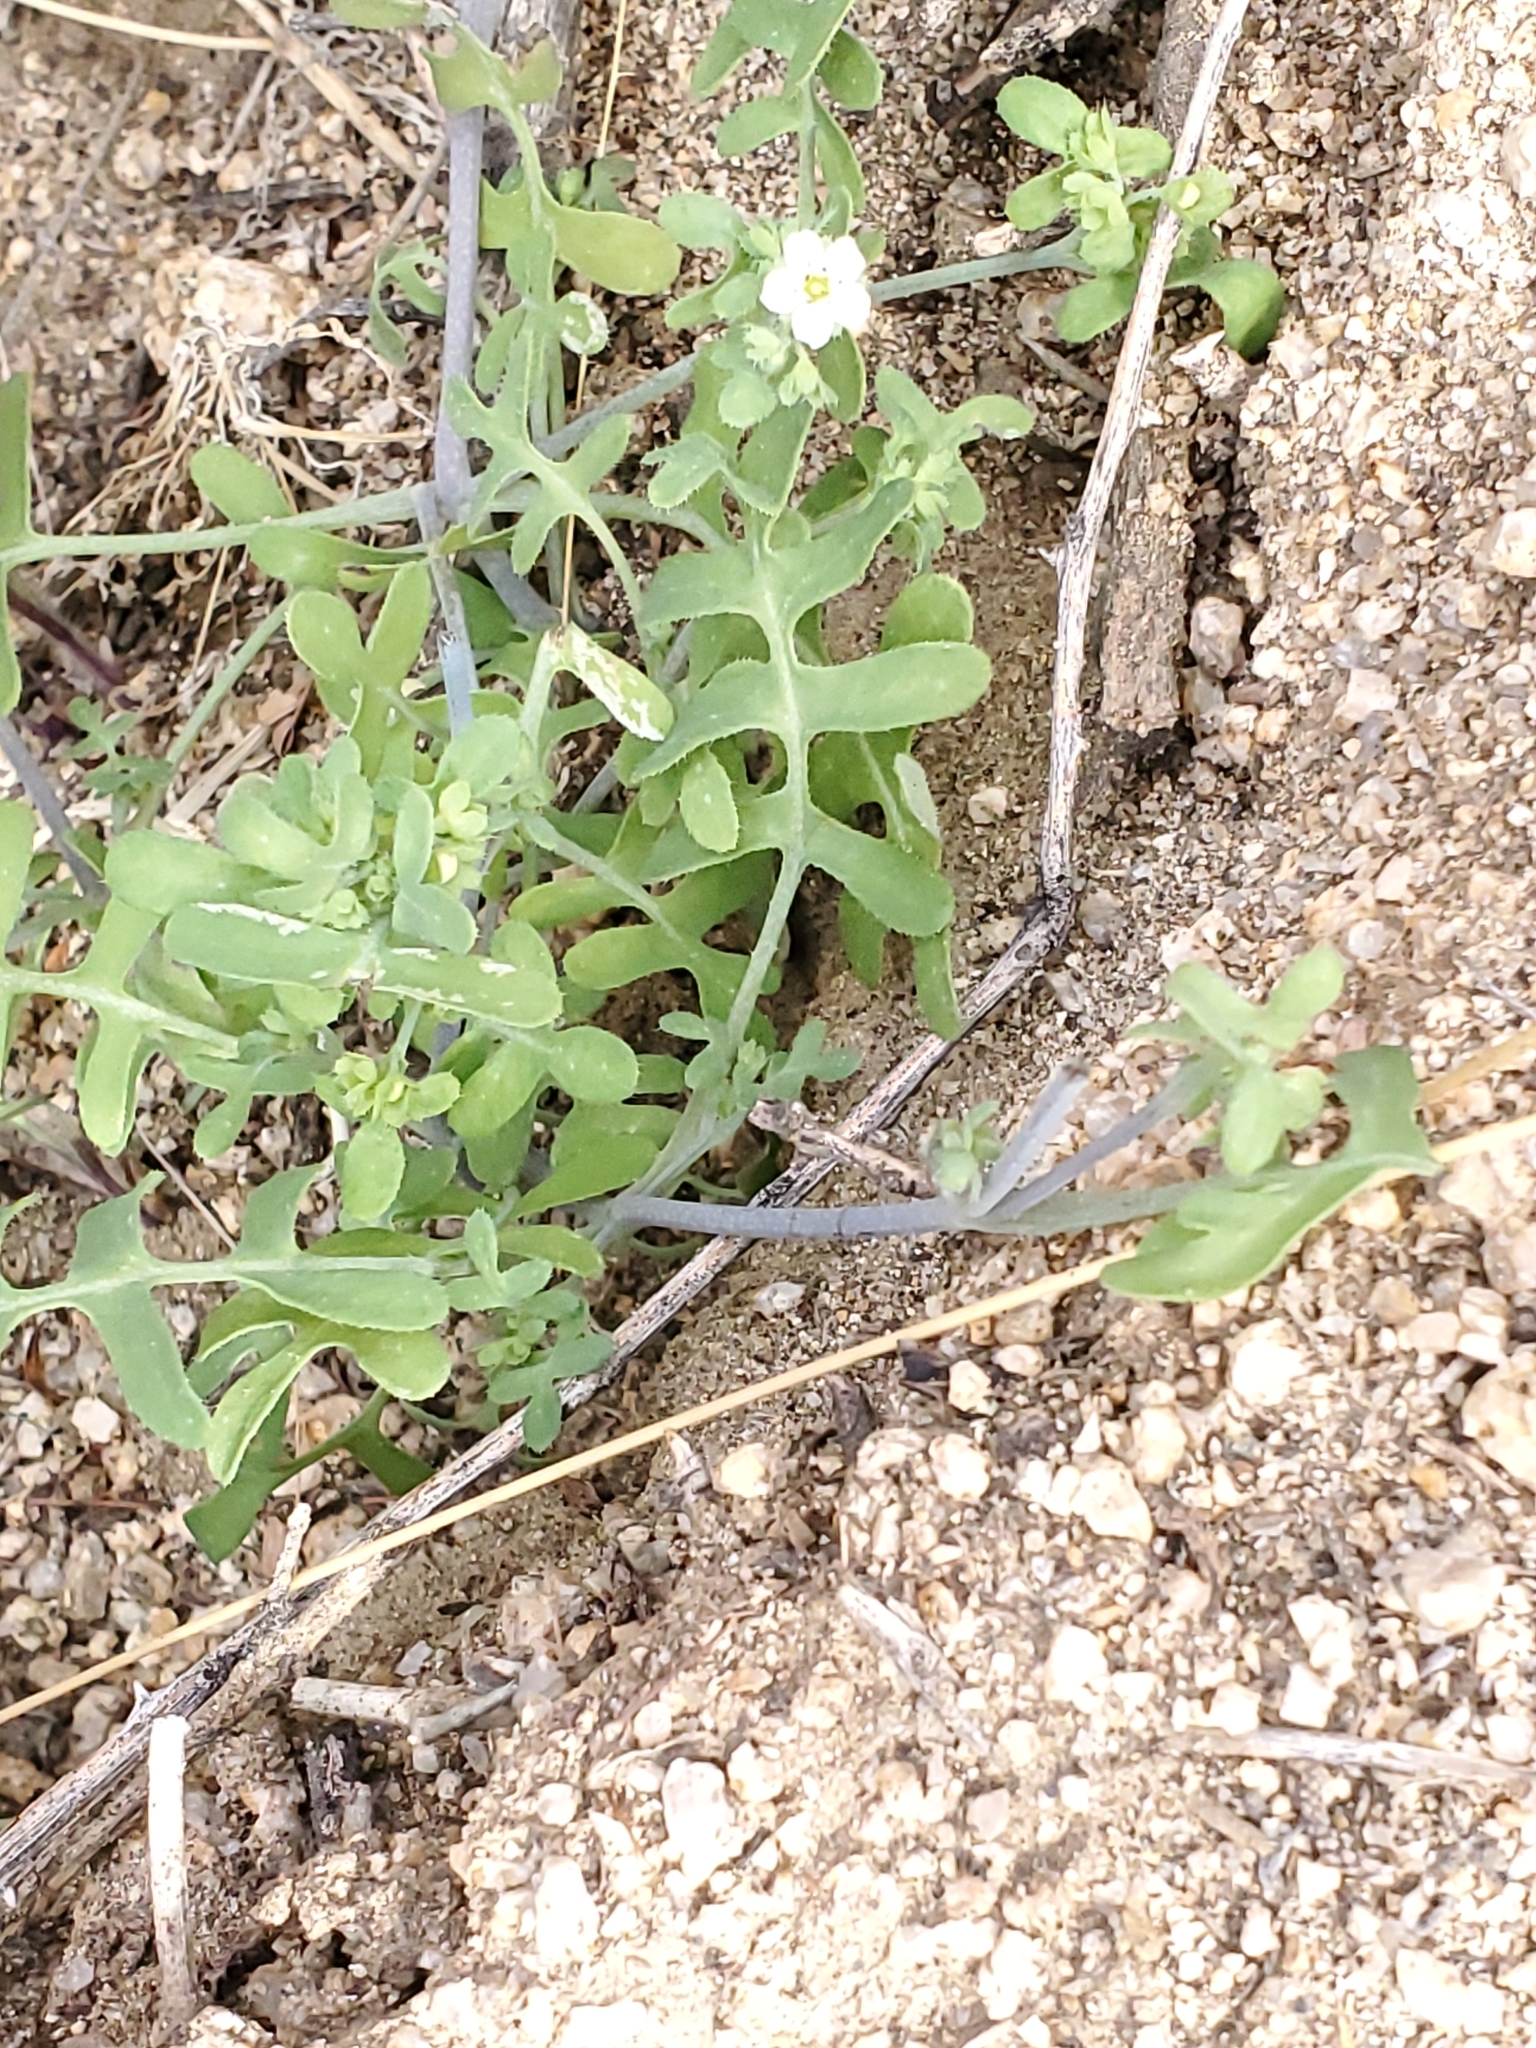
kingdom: Plantae
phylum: Tracheophyta
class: Magnoliopsida
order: Boraginales
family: Hydrophyllaceae
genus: Pholistoma
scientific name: Pholistoma membranaceum
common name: White fiesta-flower
